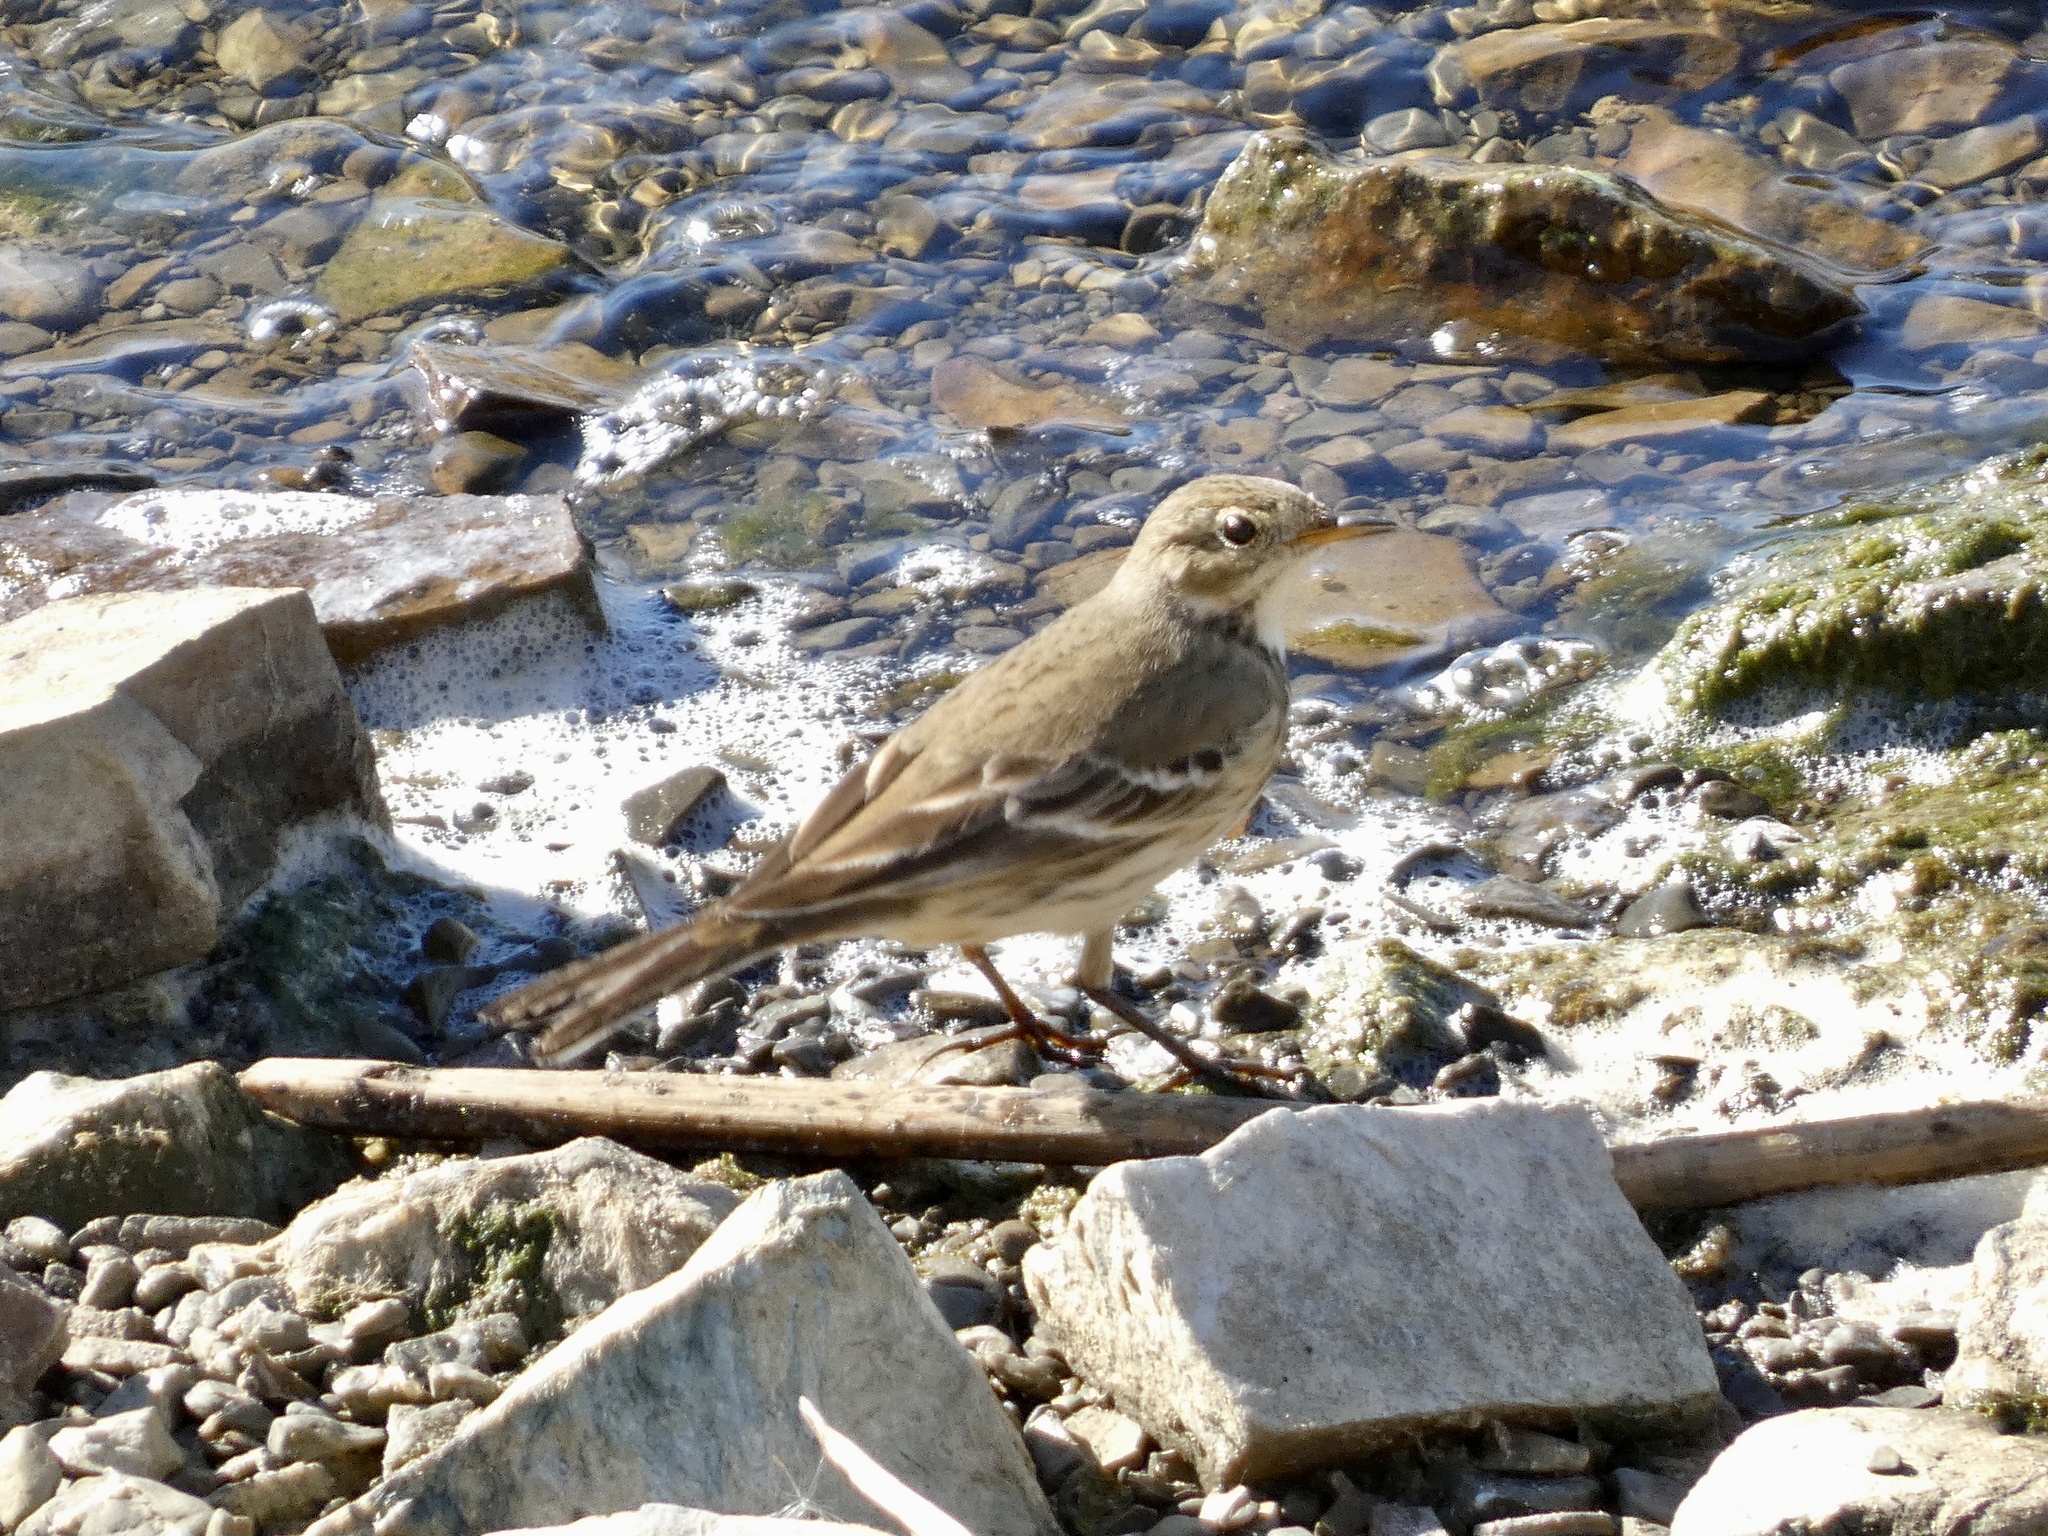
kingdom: Animalia
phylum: Chordata
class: Aves
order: Passeriformes
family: Motacillidae
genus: Anthus
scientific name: Anthus rubescens
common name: Buff-bellied pipit
